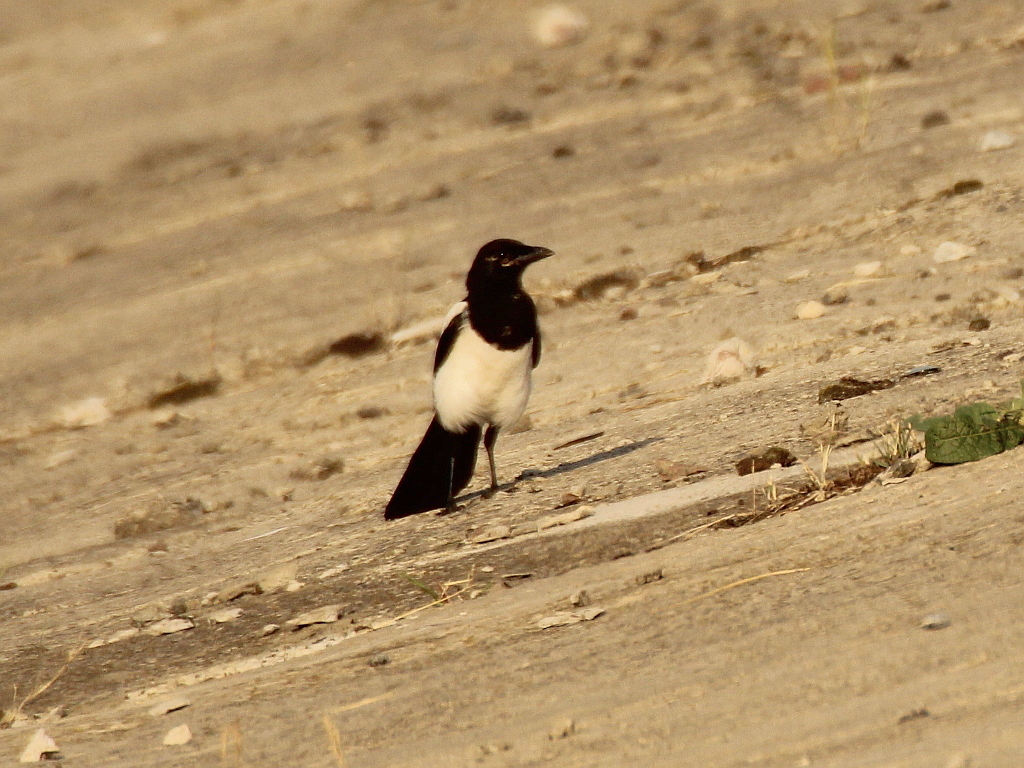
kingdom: Animalia
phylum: Chordata
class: Aves
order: Passeriformes
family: Corvidae
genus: Pica
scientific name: Pica pica
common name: Eurasian magpie
